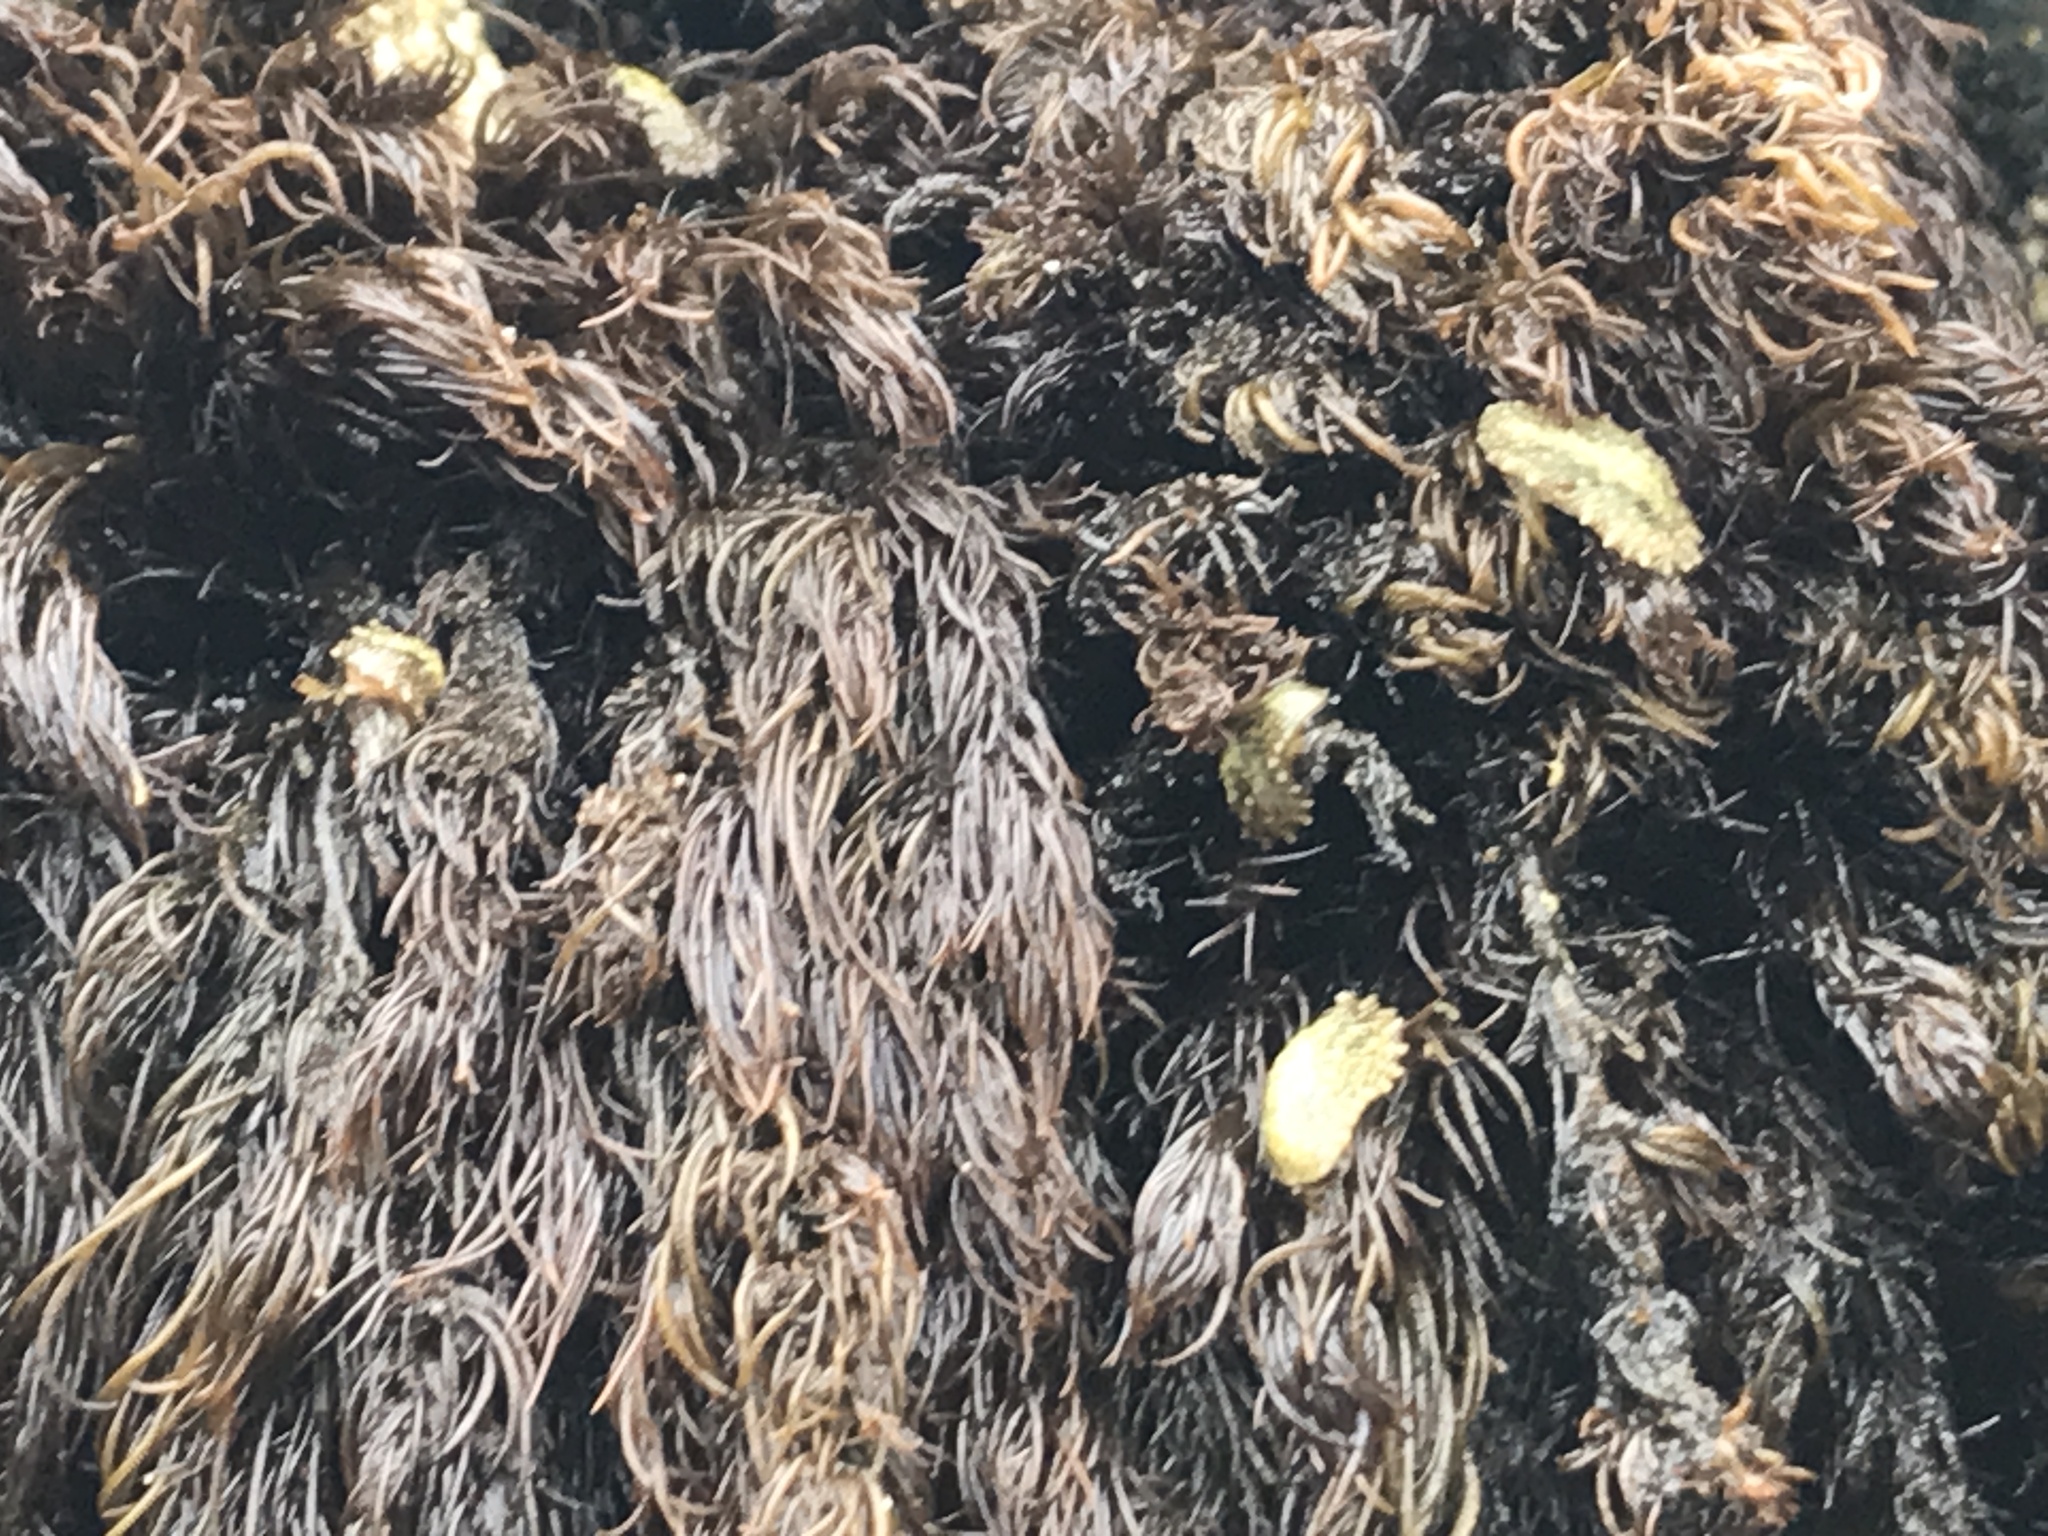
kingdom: Animalia
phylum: Mollusca
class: Gastropoda
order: Systellommatophora
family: Onchidiidae
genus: Onchidella
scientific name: Onchidella carpenteri
